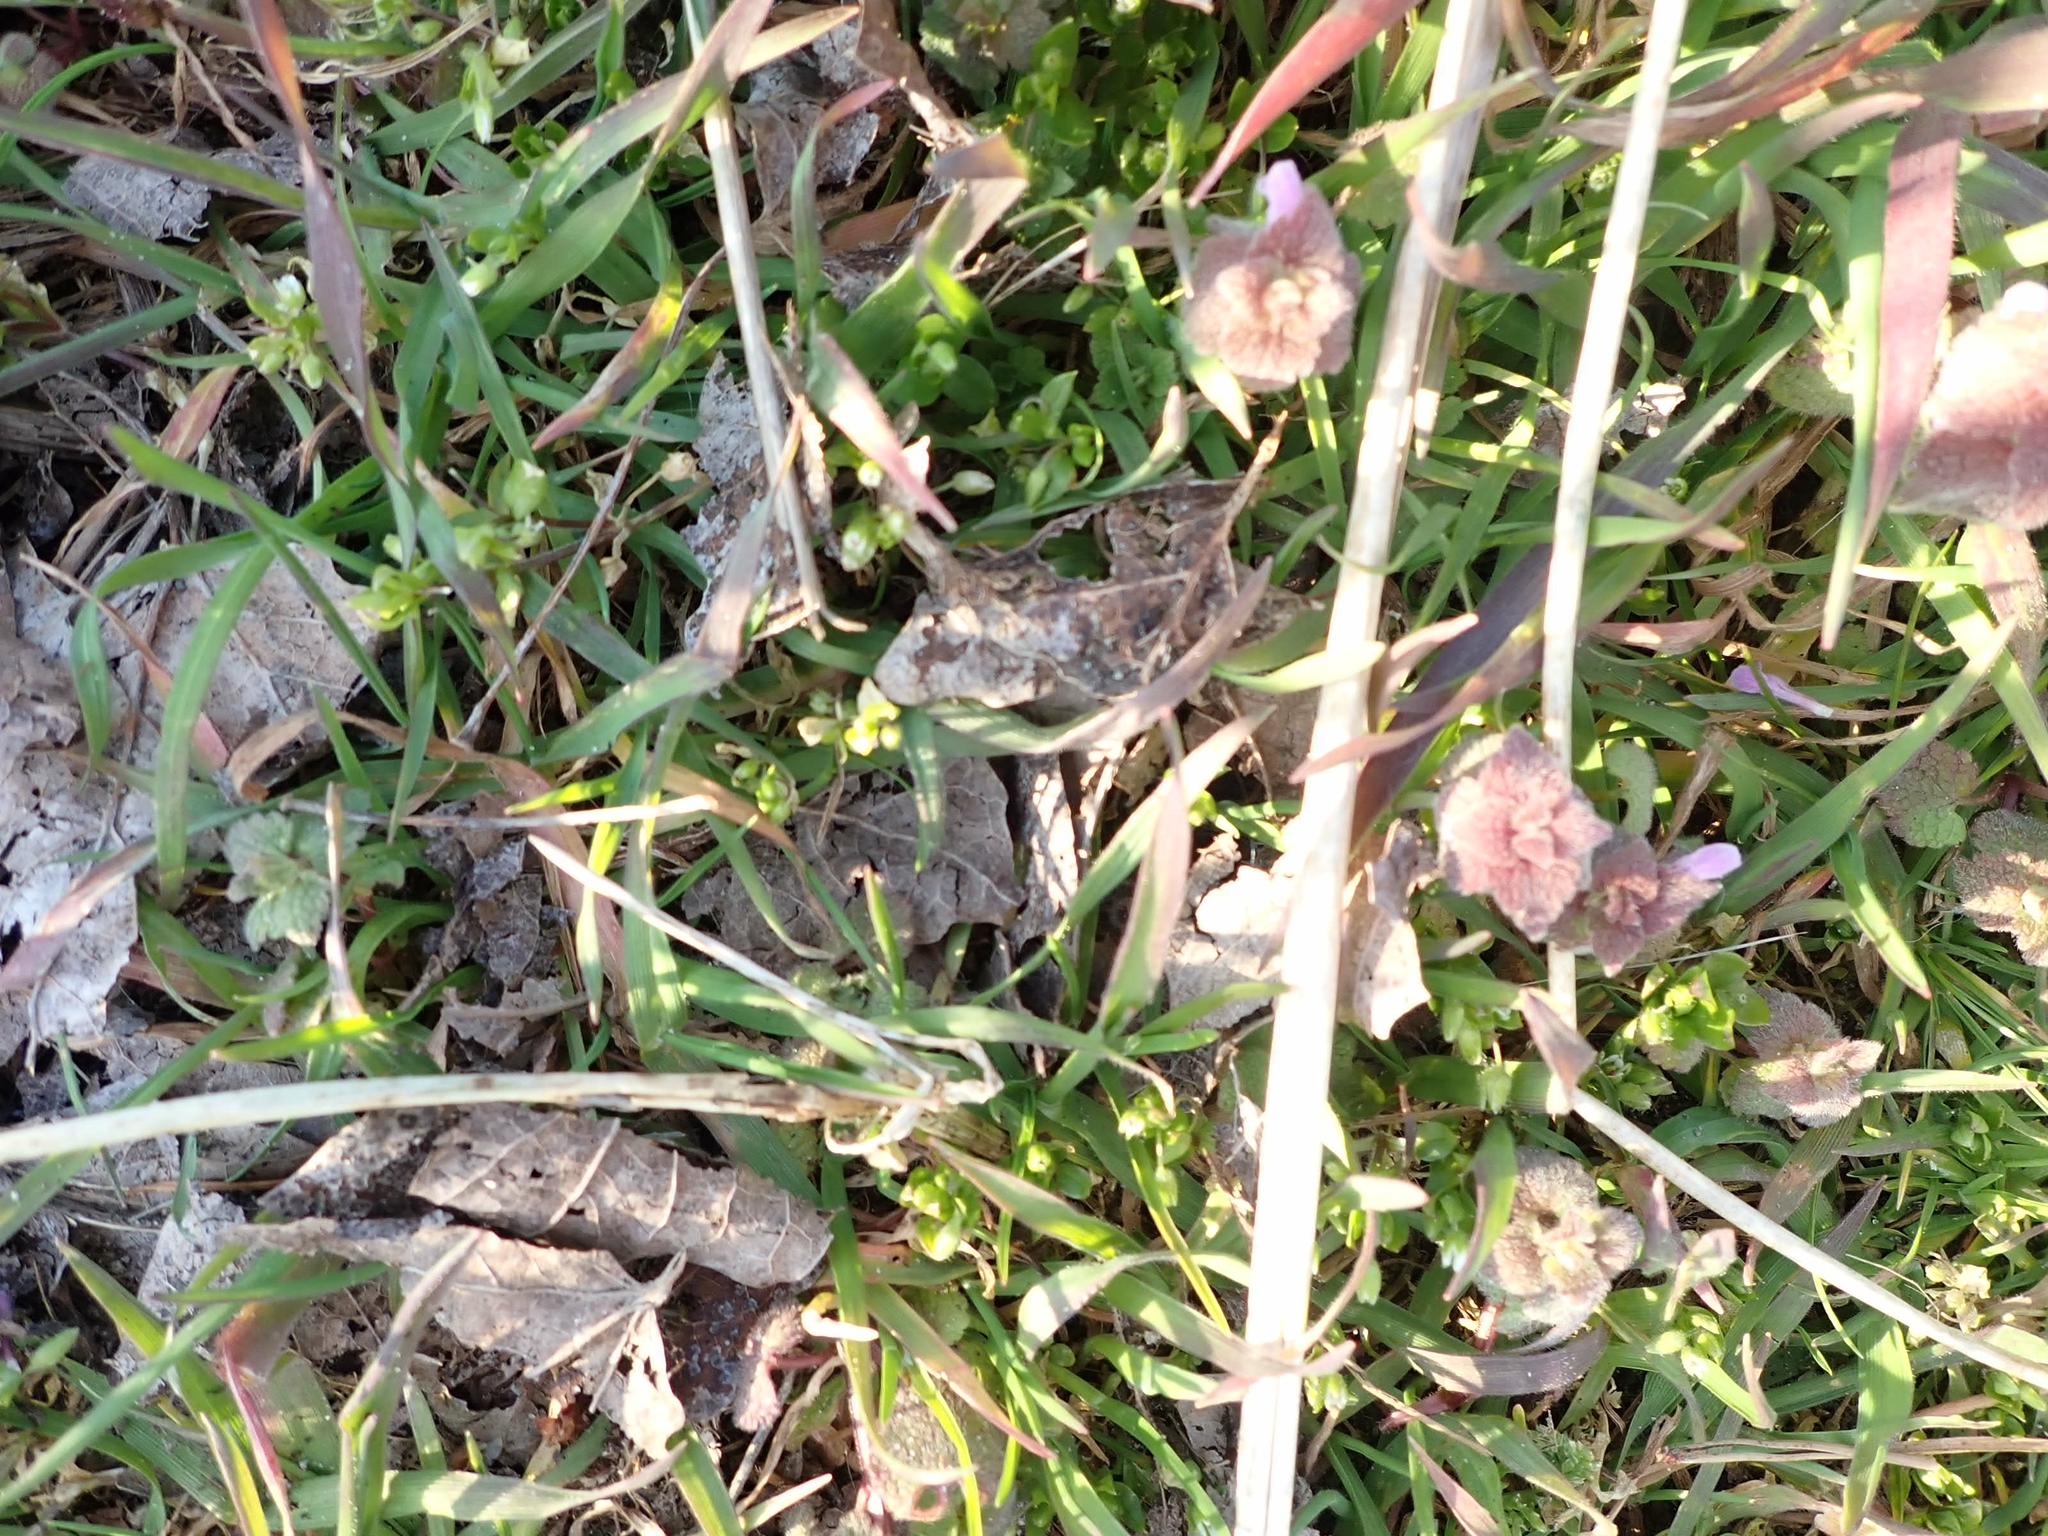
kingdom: Plantae
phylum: Tracheophyta
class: Magnoliopsida
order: Lamiales
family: Lamiaceae
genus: Lamium
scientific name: Lamium purpureum
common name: Red dead-nettle
